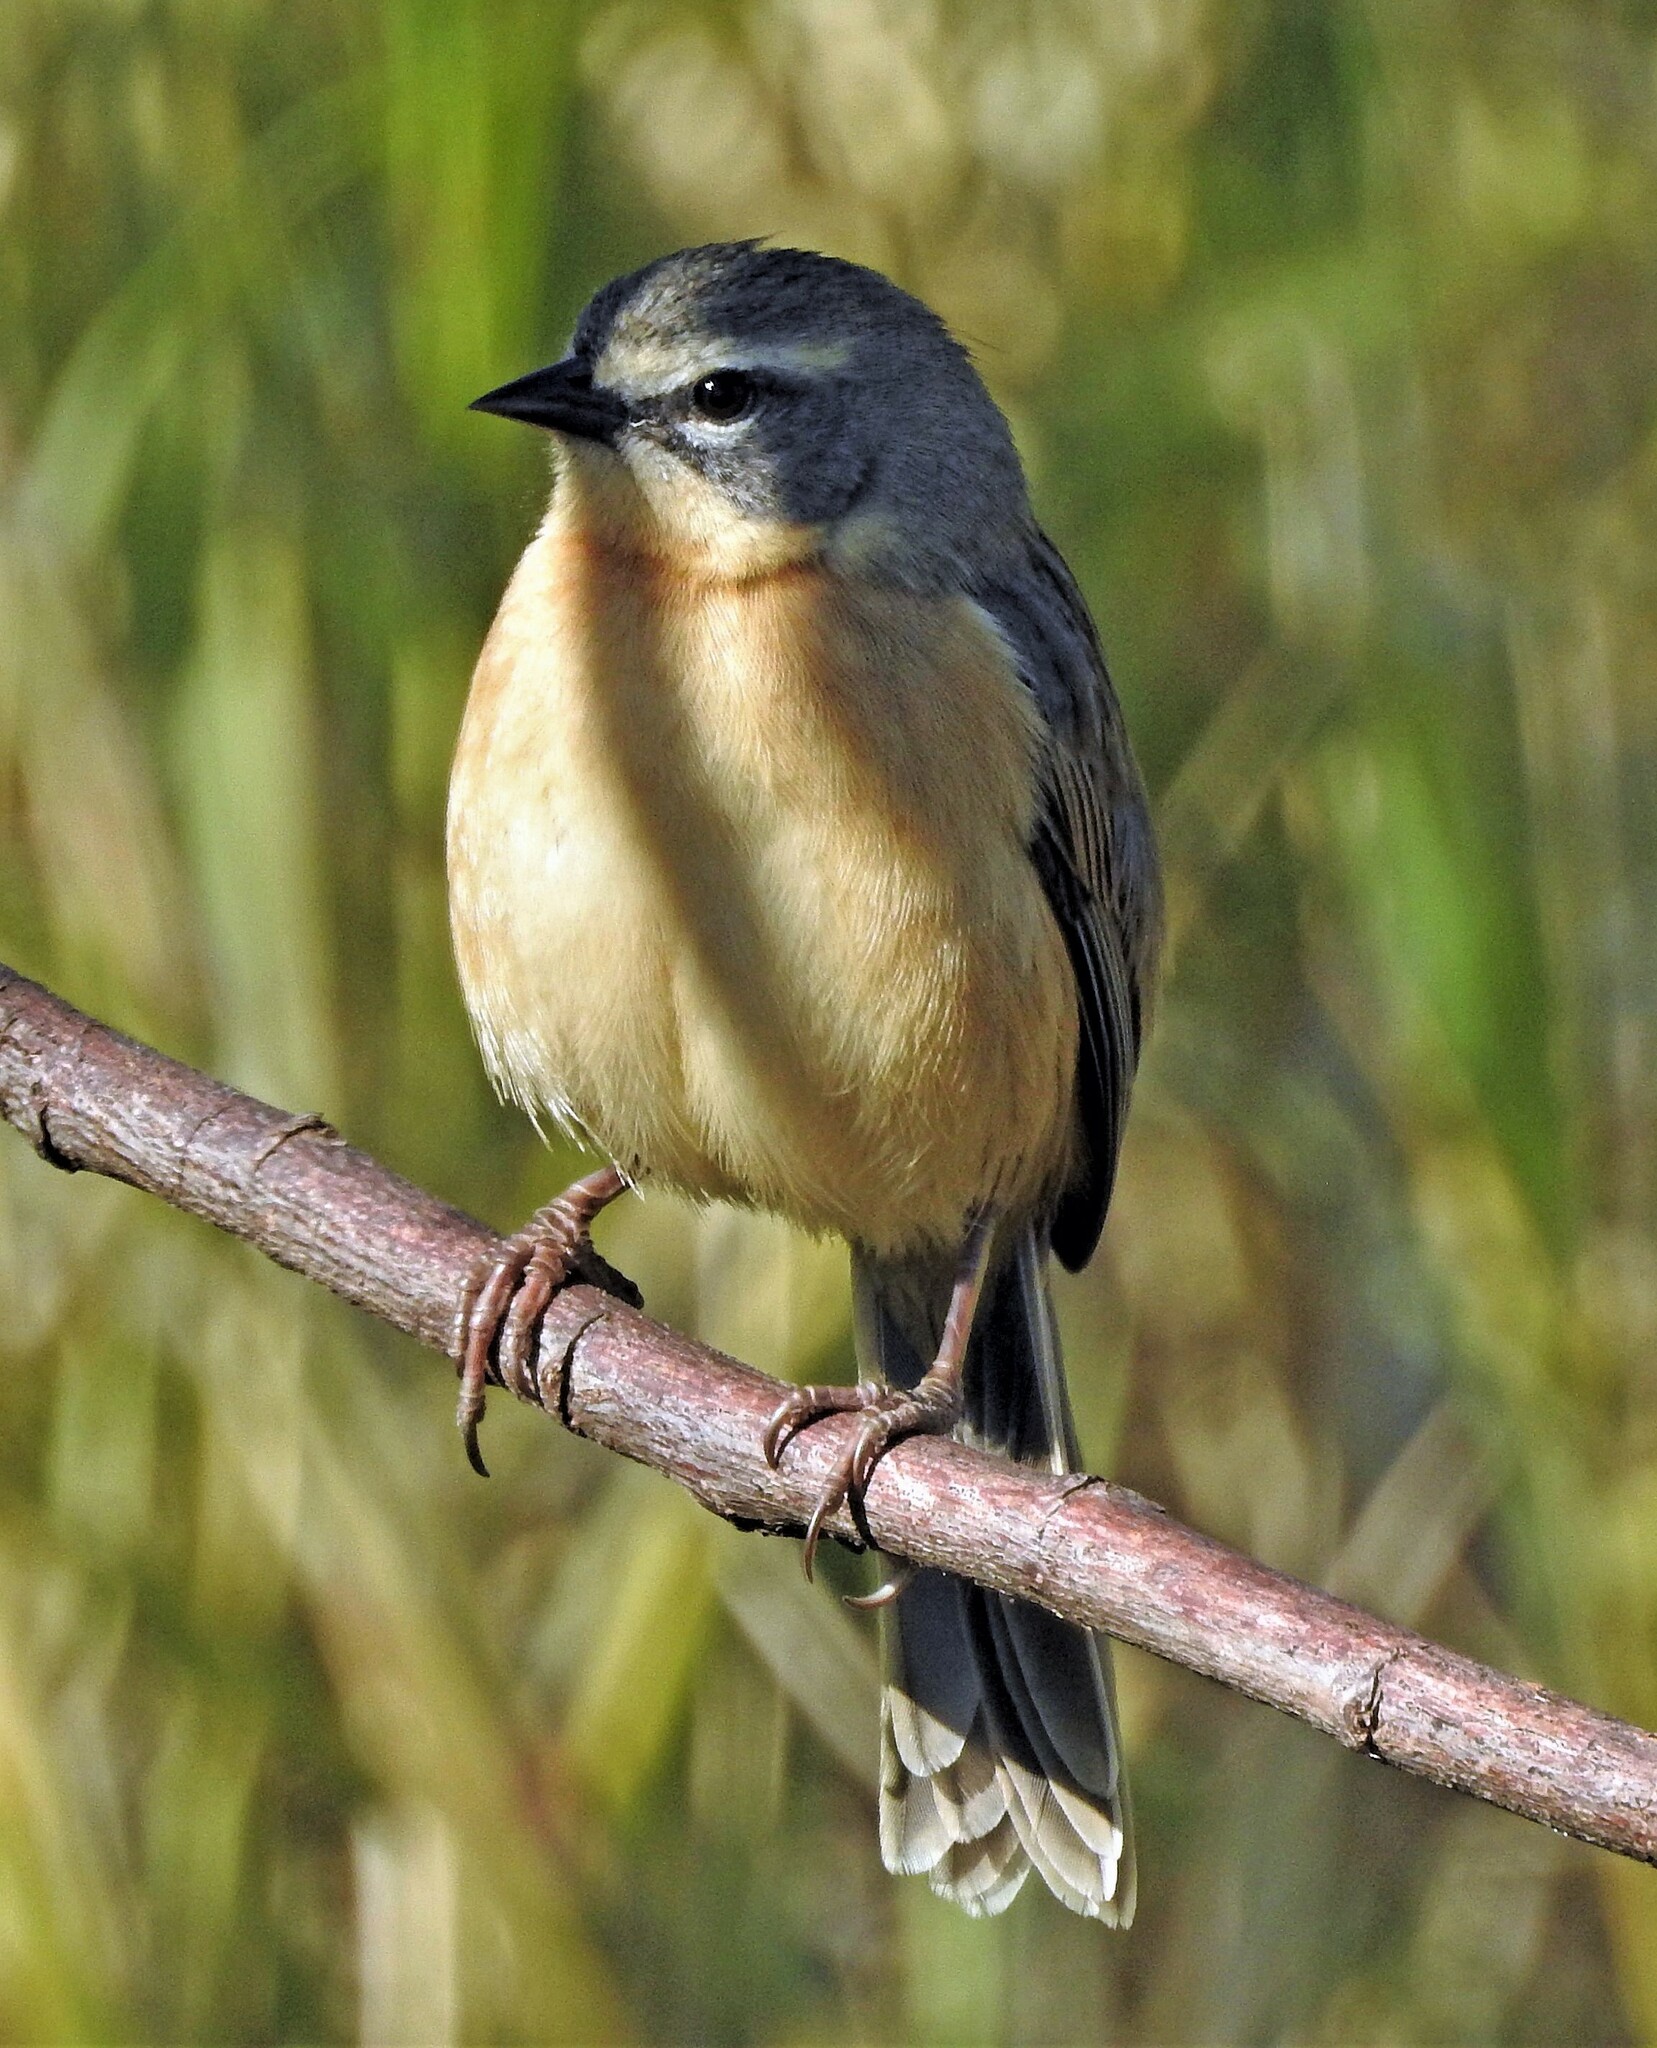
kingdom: Animalia
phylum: Chordata
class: Aves
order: Passeriformes
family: Thraupidae
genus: Donacospiza
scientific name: Donacospiza albifrons
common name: Long-tailed reed finch
